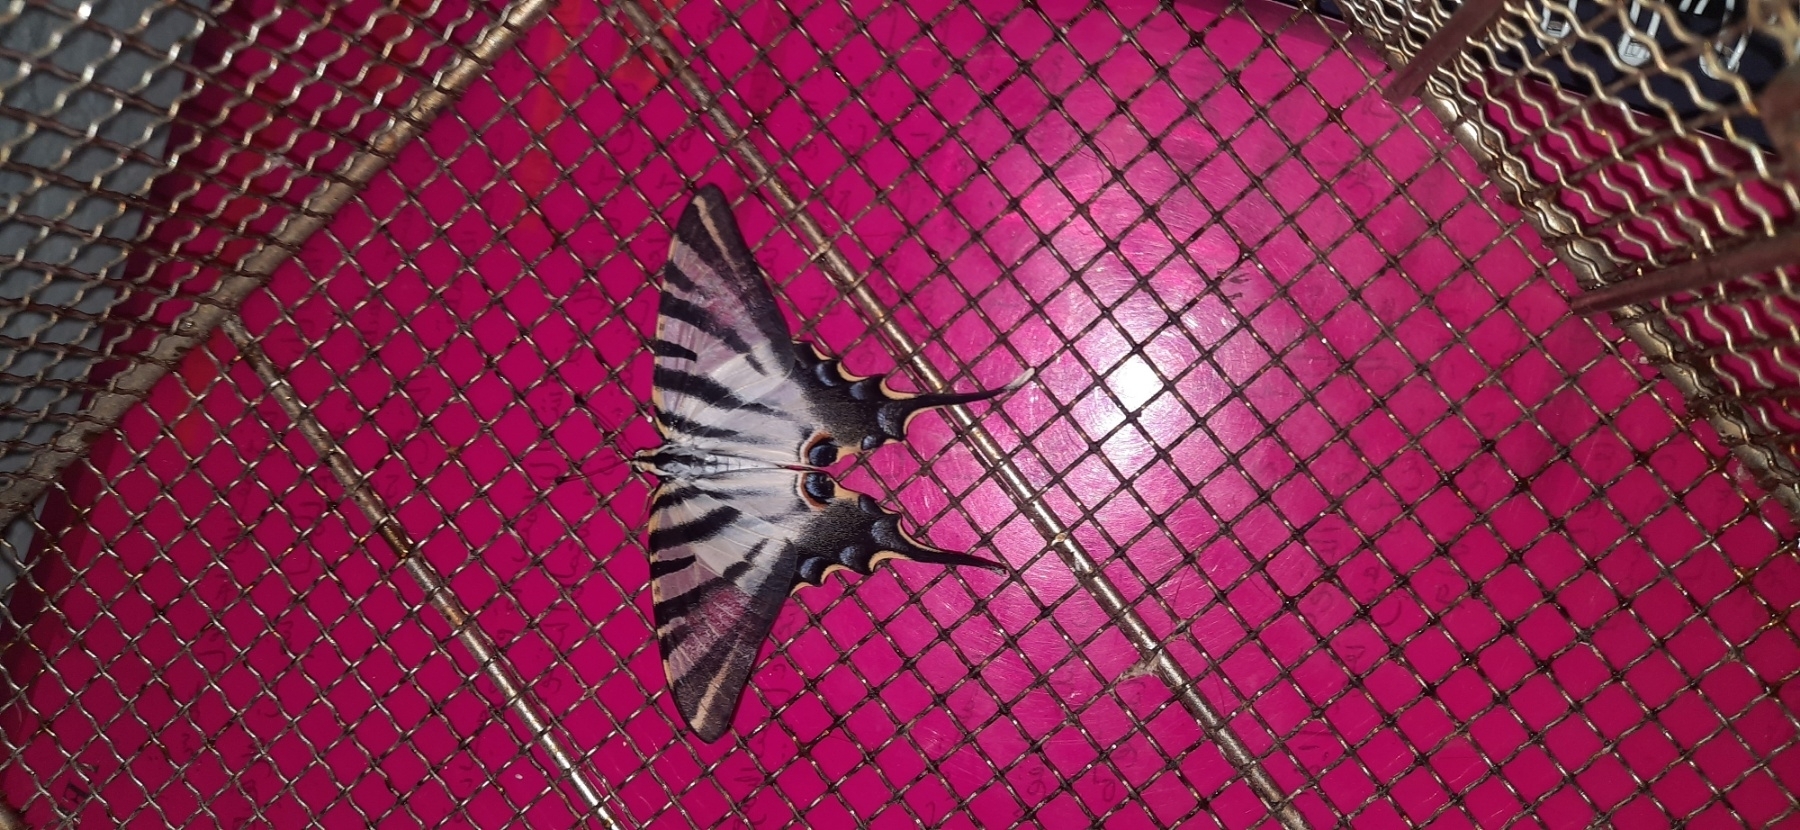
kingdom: Animalia
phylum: Arthropoda
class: Insecta
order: Lepidoptera
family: Papilionidae
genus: Iphiclides
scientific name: Iphiclides feisthamelii
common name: Iberian scarce swallowtail
